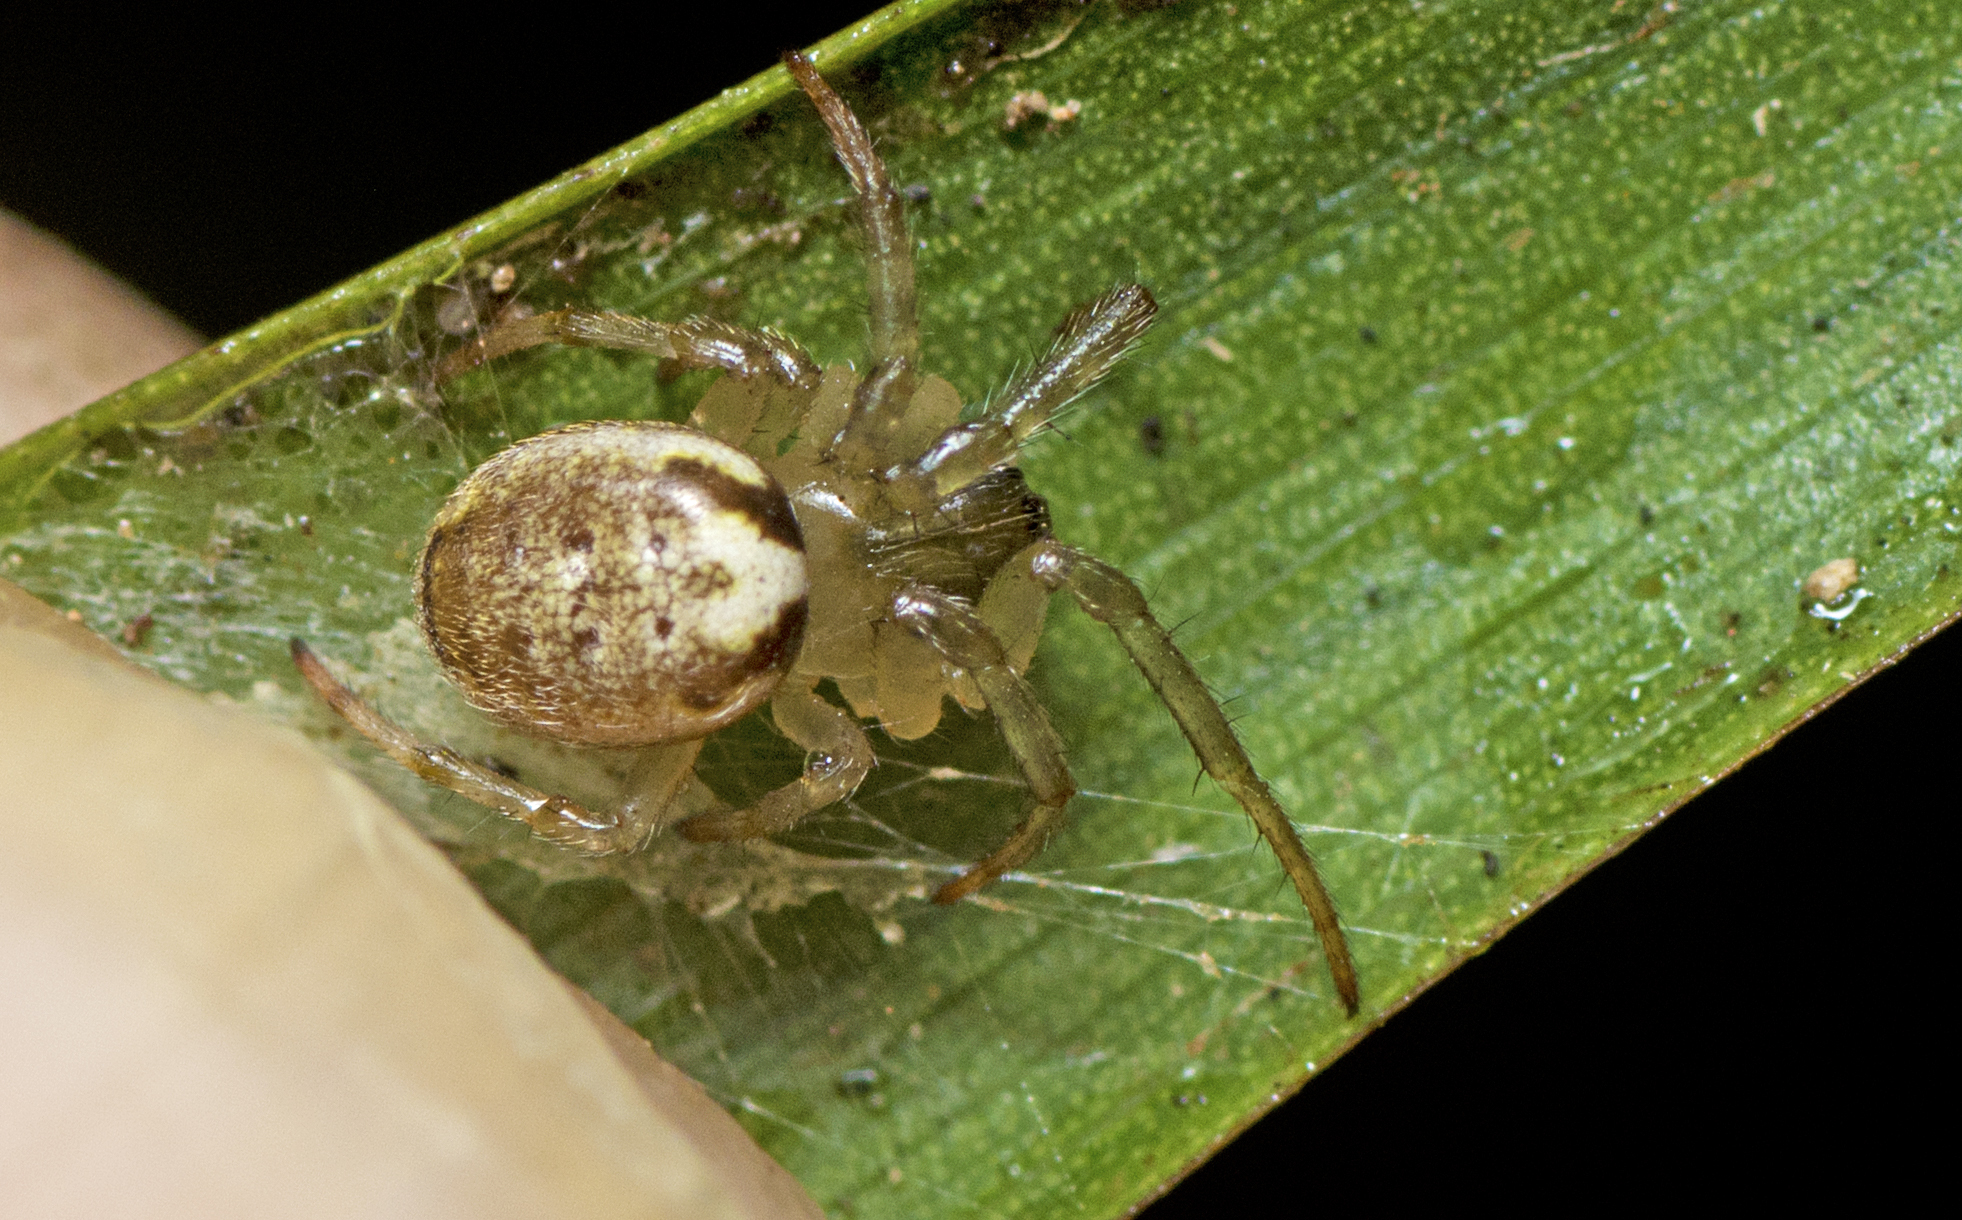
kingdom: Animalia
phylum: Arthropoda
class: Arachnida
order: Araneae
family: Araneidae
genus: Araneus
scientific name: Araneus dimidiatus
